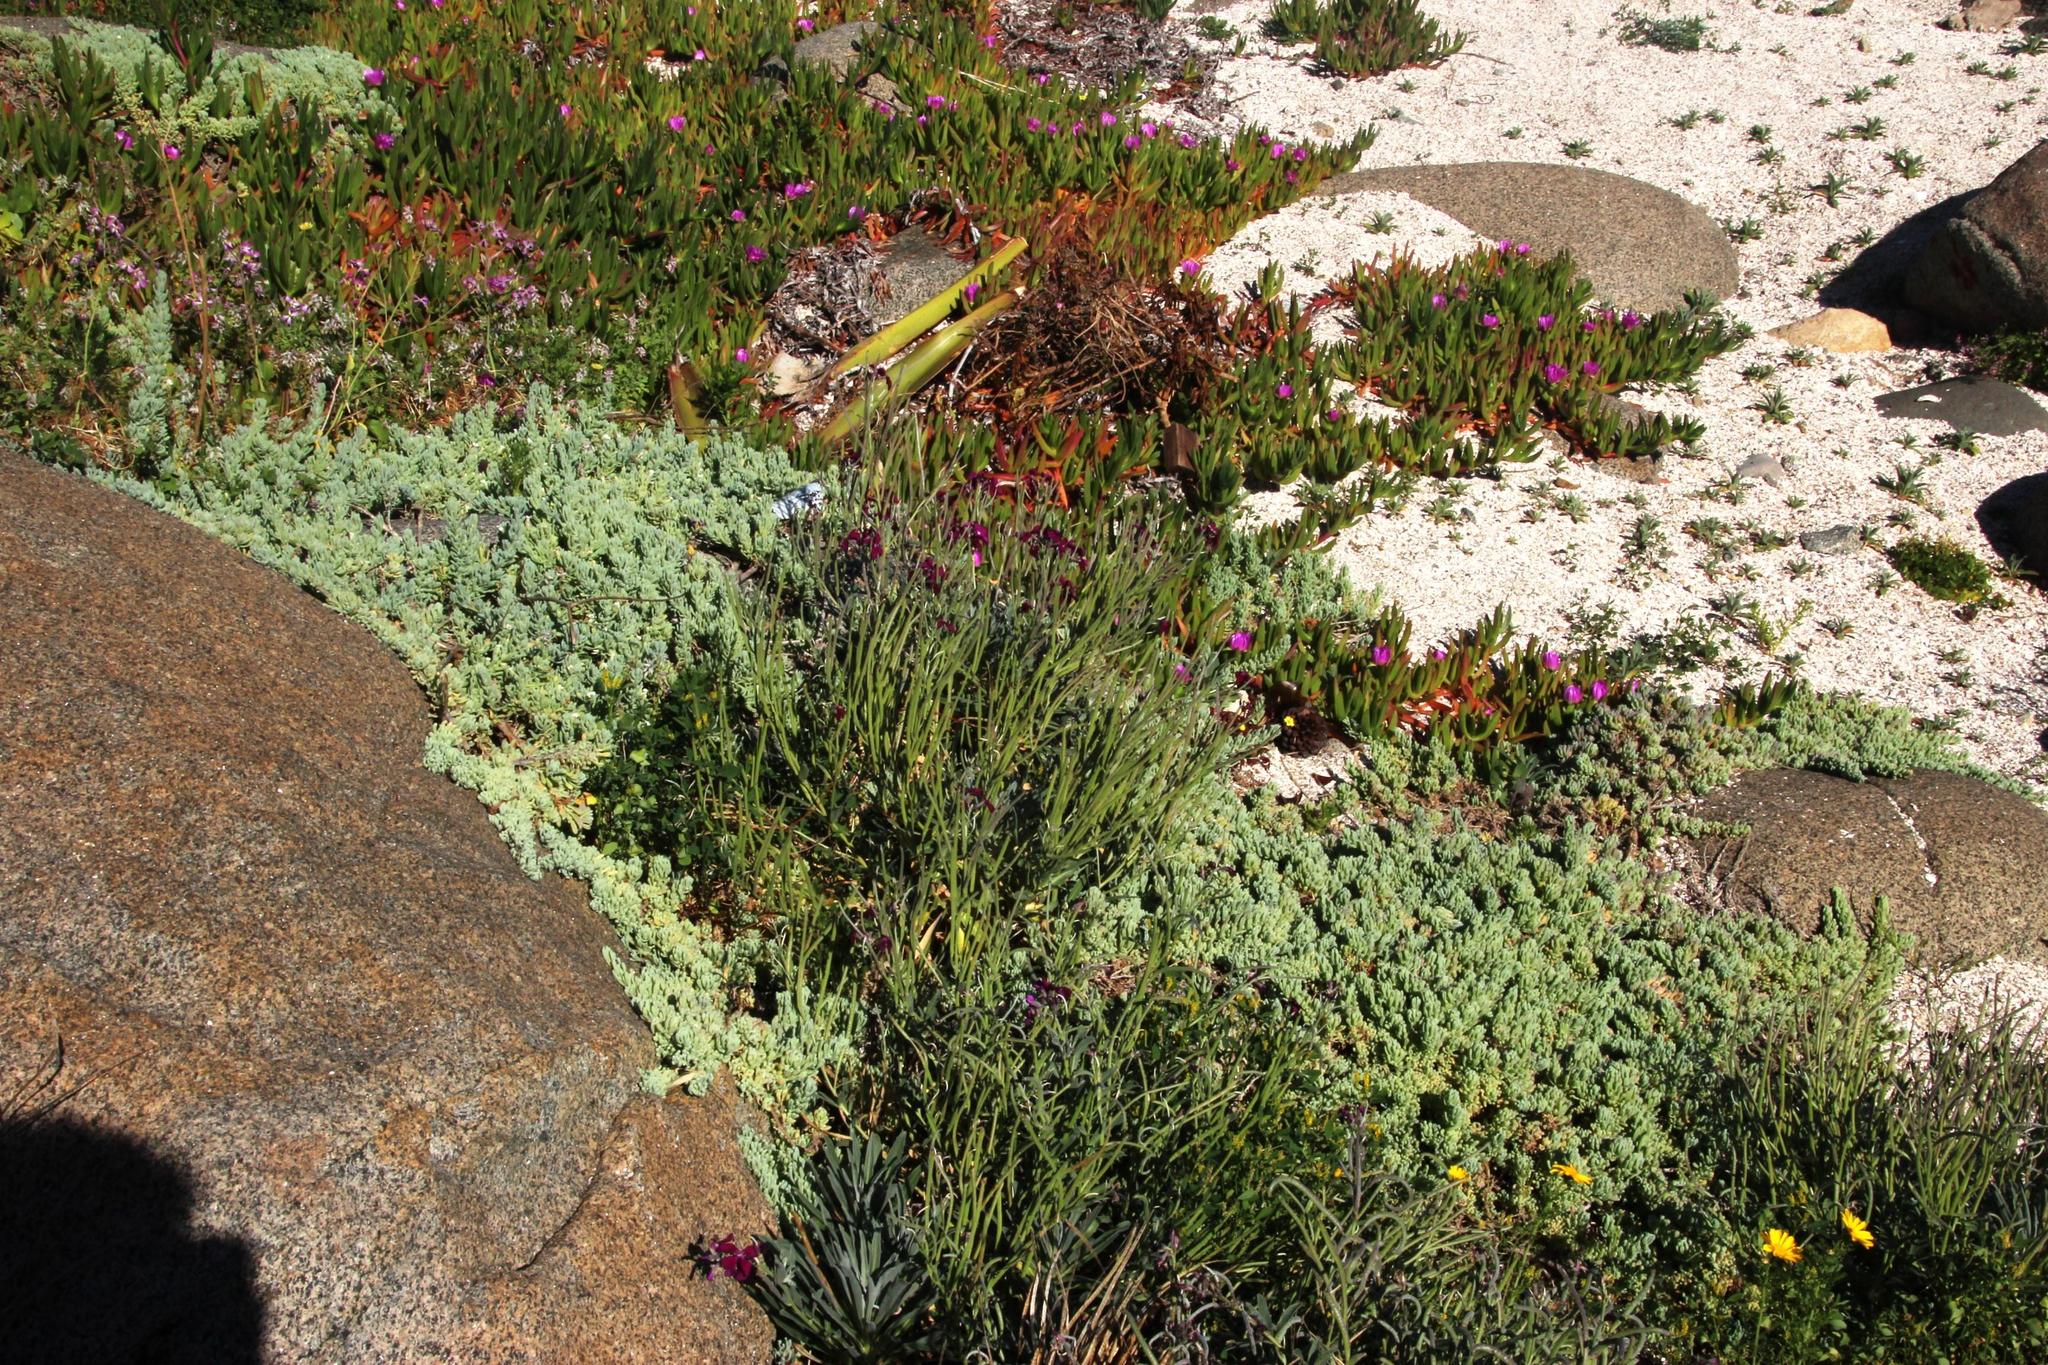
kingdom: Plantae
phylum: Tracheophyta
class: Magnoliopsida
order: Brassicales
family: Brassicaceae
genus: Matthiola
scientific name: Matthiola incana
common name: Hoary stock
